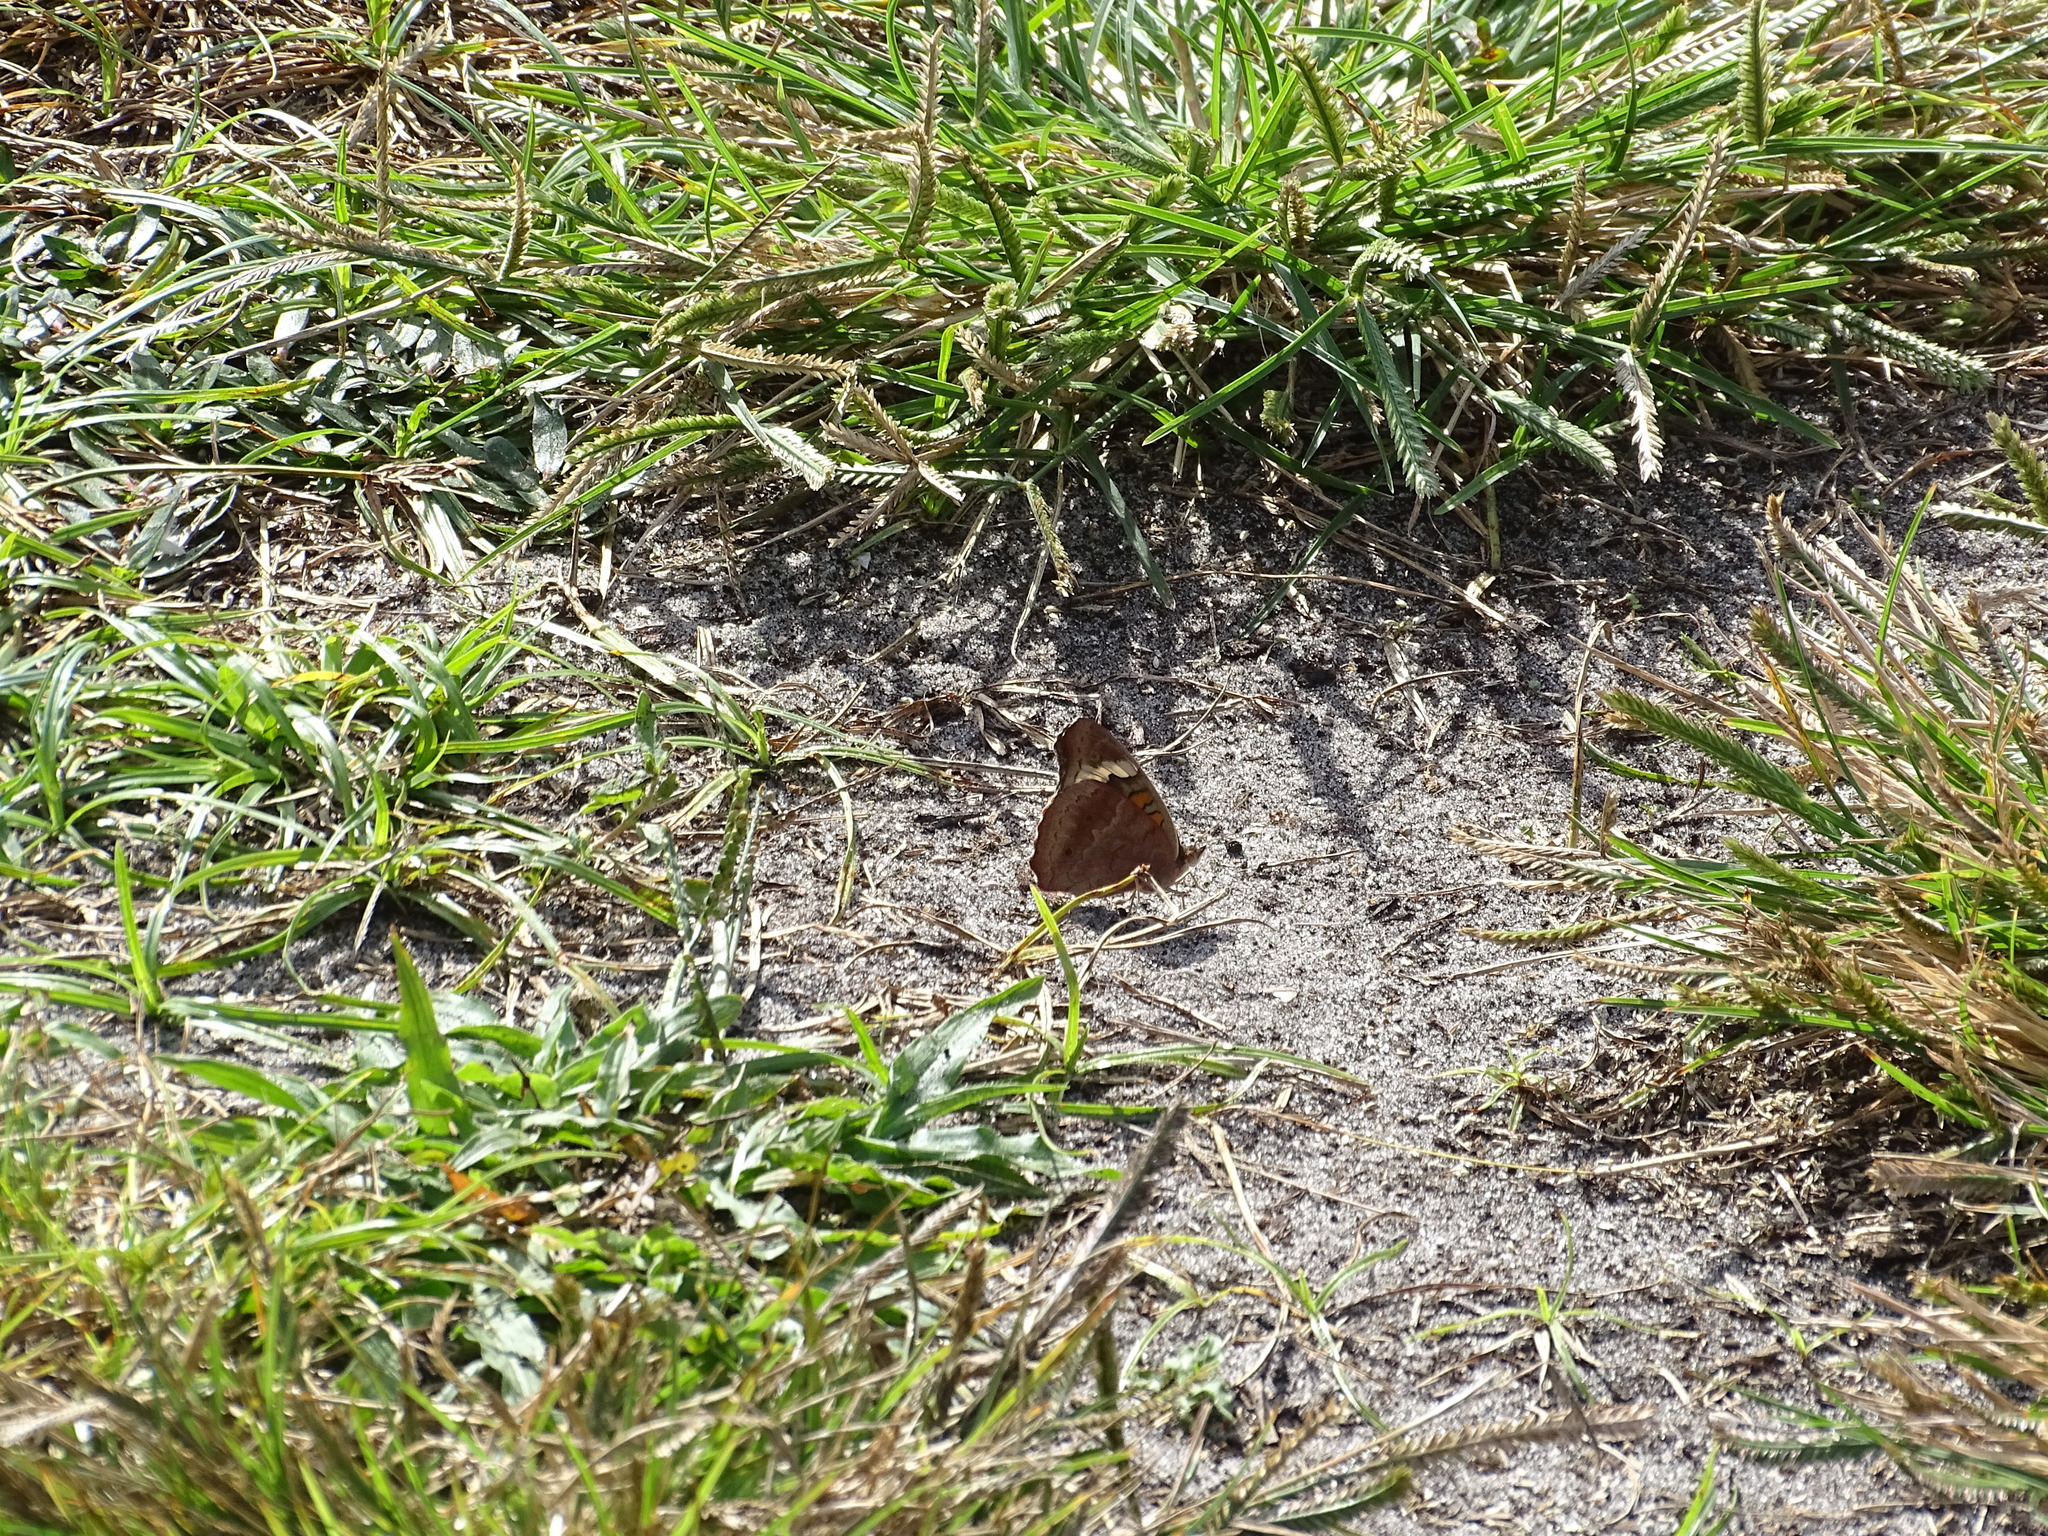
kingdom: Animalia
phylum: Arthropoda
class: Insecta
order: Lepidoptera
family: Nymphalidae
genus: Junonia
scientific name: Junonia coenia
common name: Common buckeye
